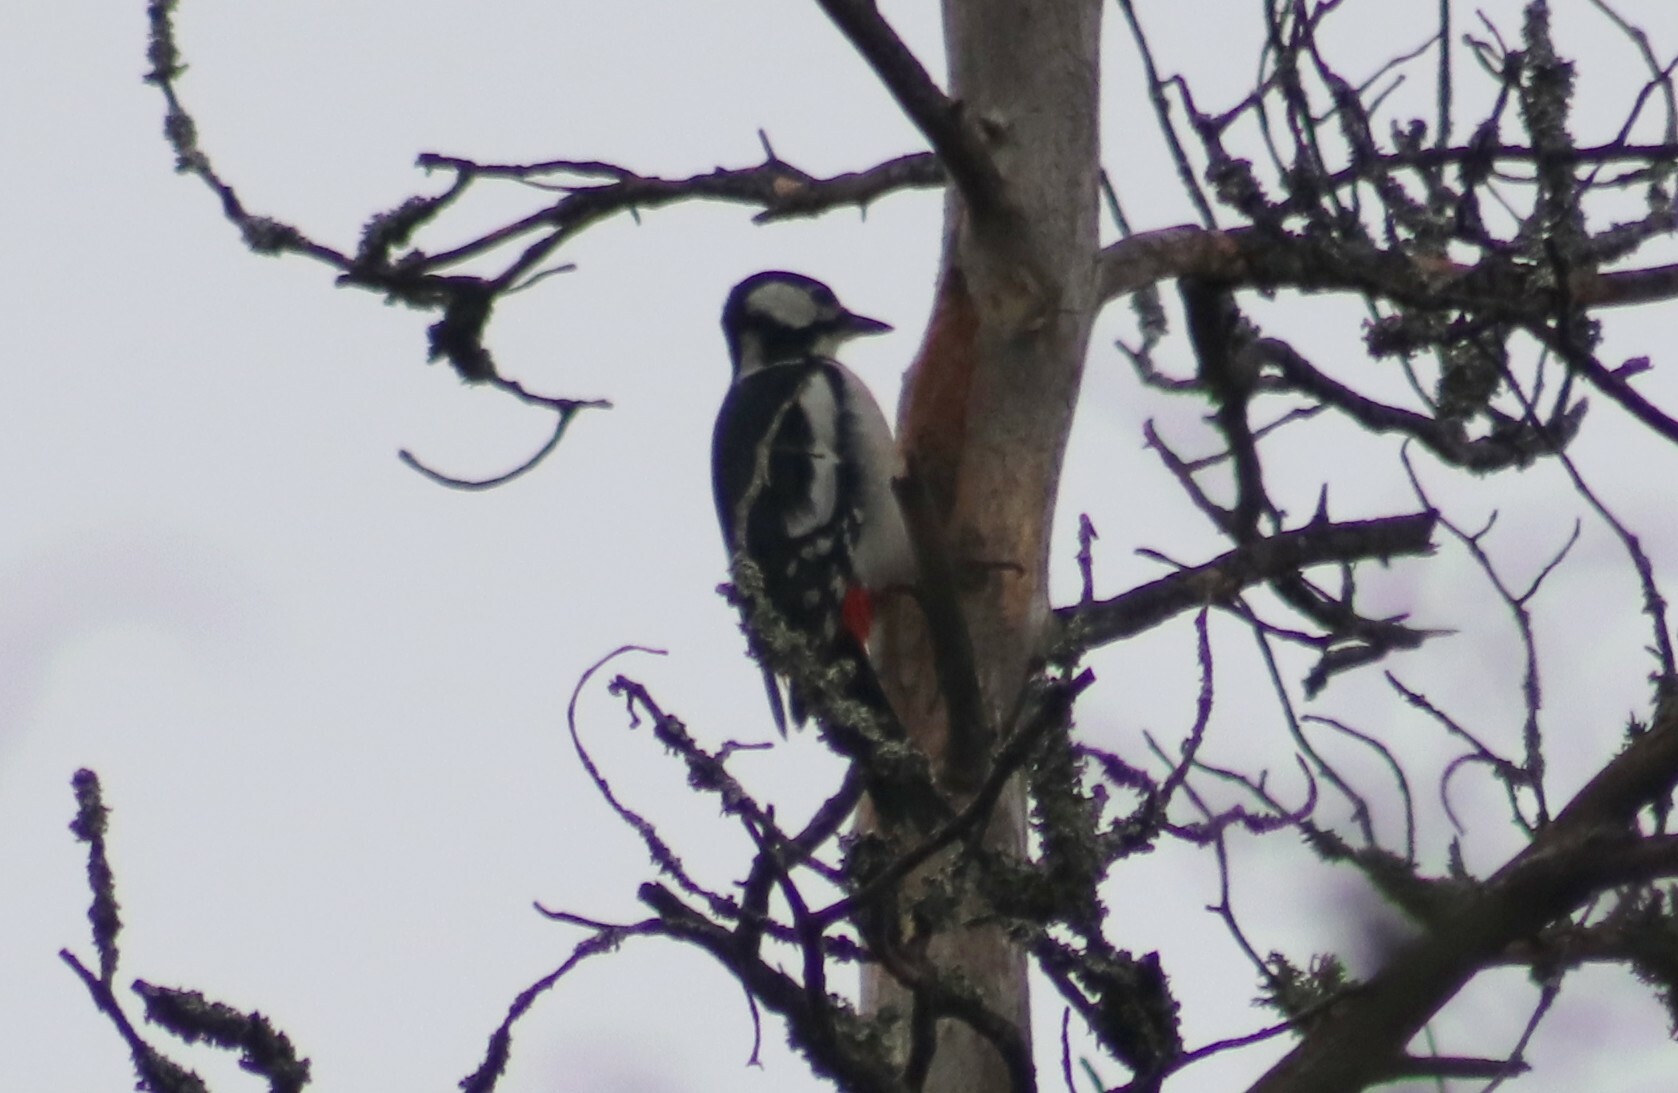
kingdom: Animalia
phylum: Chordata
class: Aves
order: Piciformes
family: Picidae
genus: Dendrocopos
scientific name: Dendrocopos major
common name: Great spotted woodpecker
